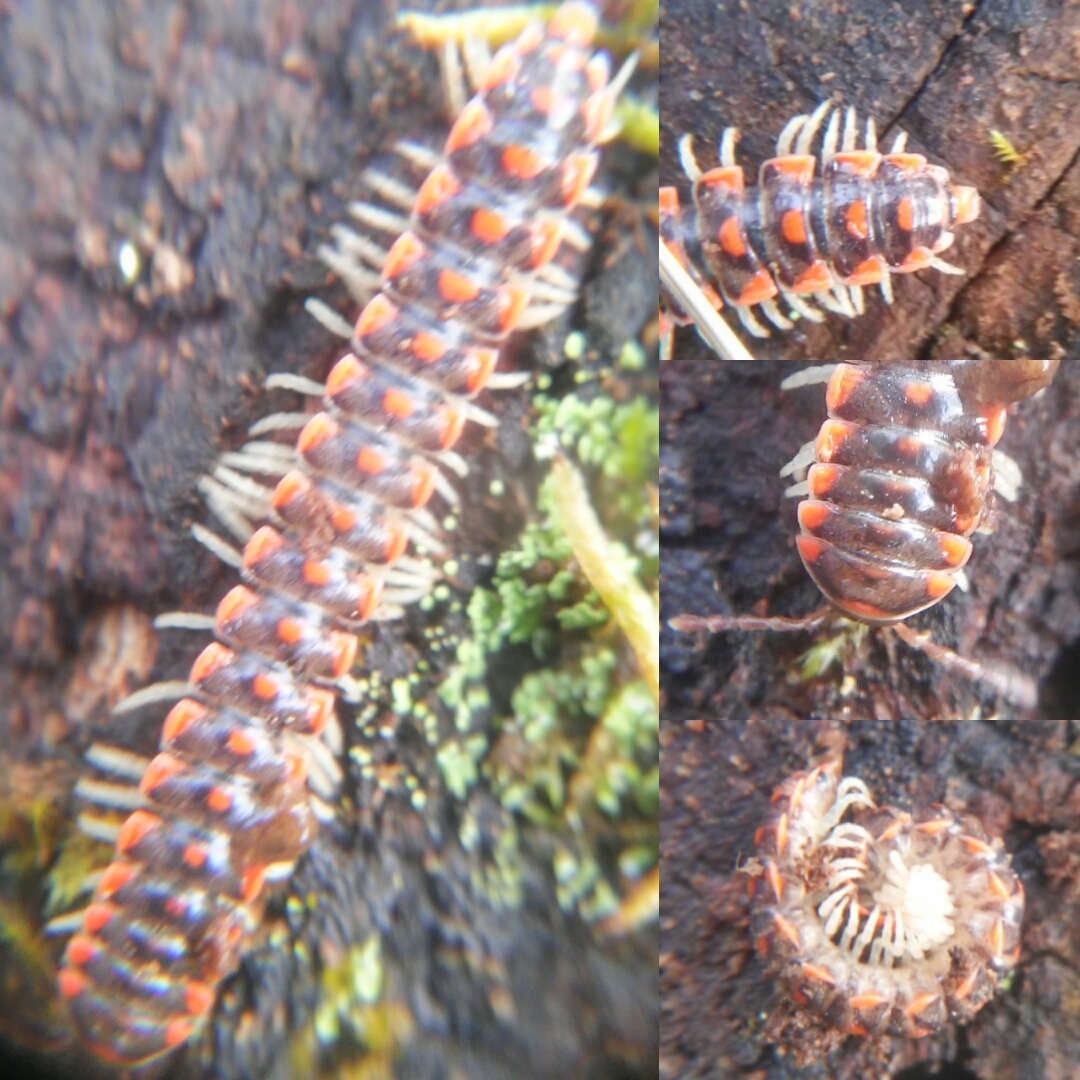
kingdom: Animalia
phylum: Arthropoda
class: Diplopoda
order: Polydesmida
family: Xystodesmidae
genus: Euryurus
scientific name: Euryurus leachii
